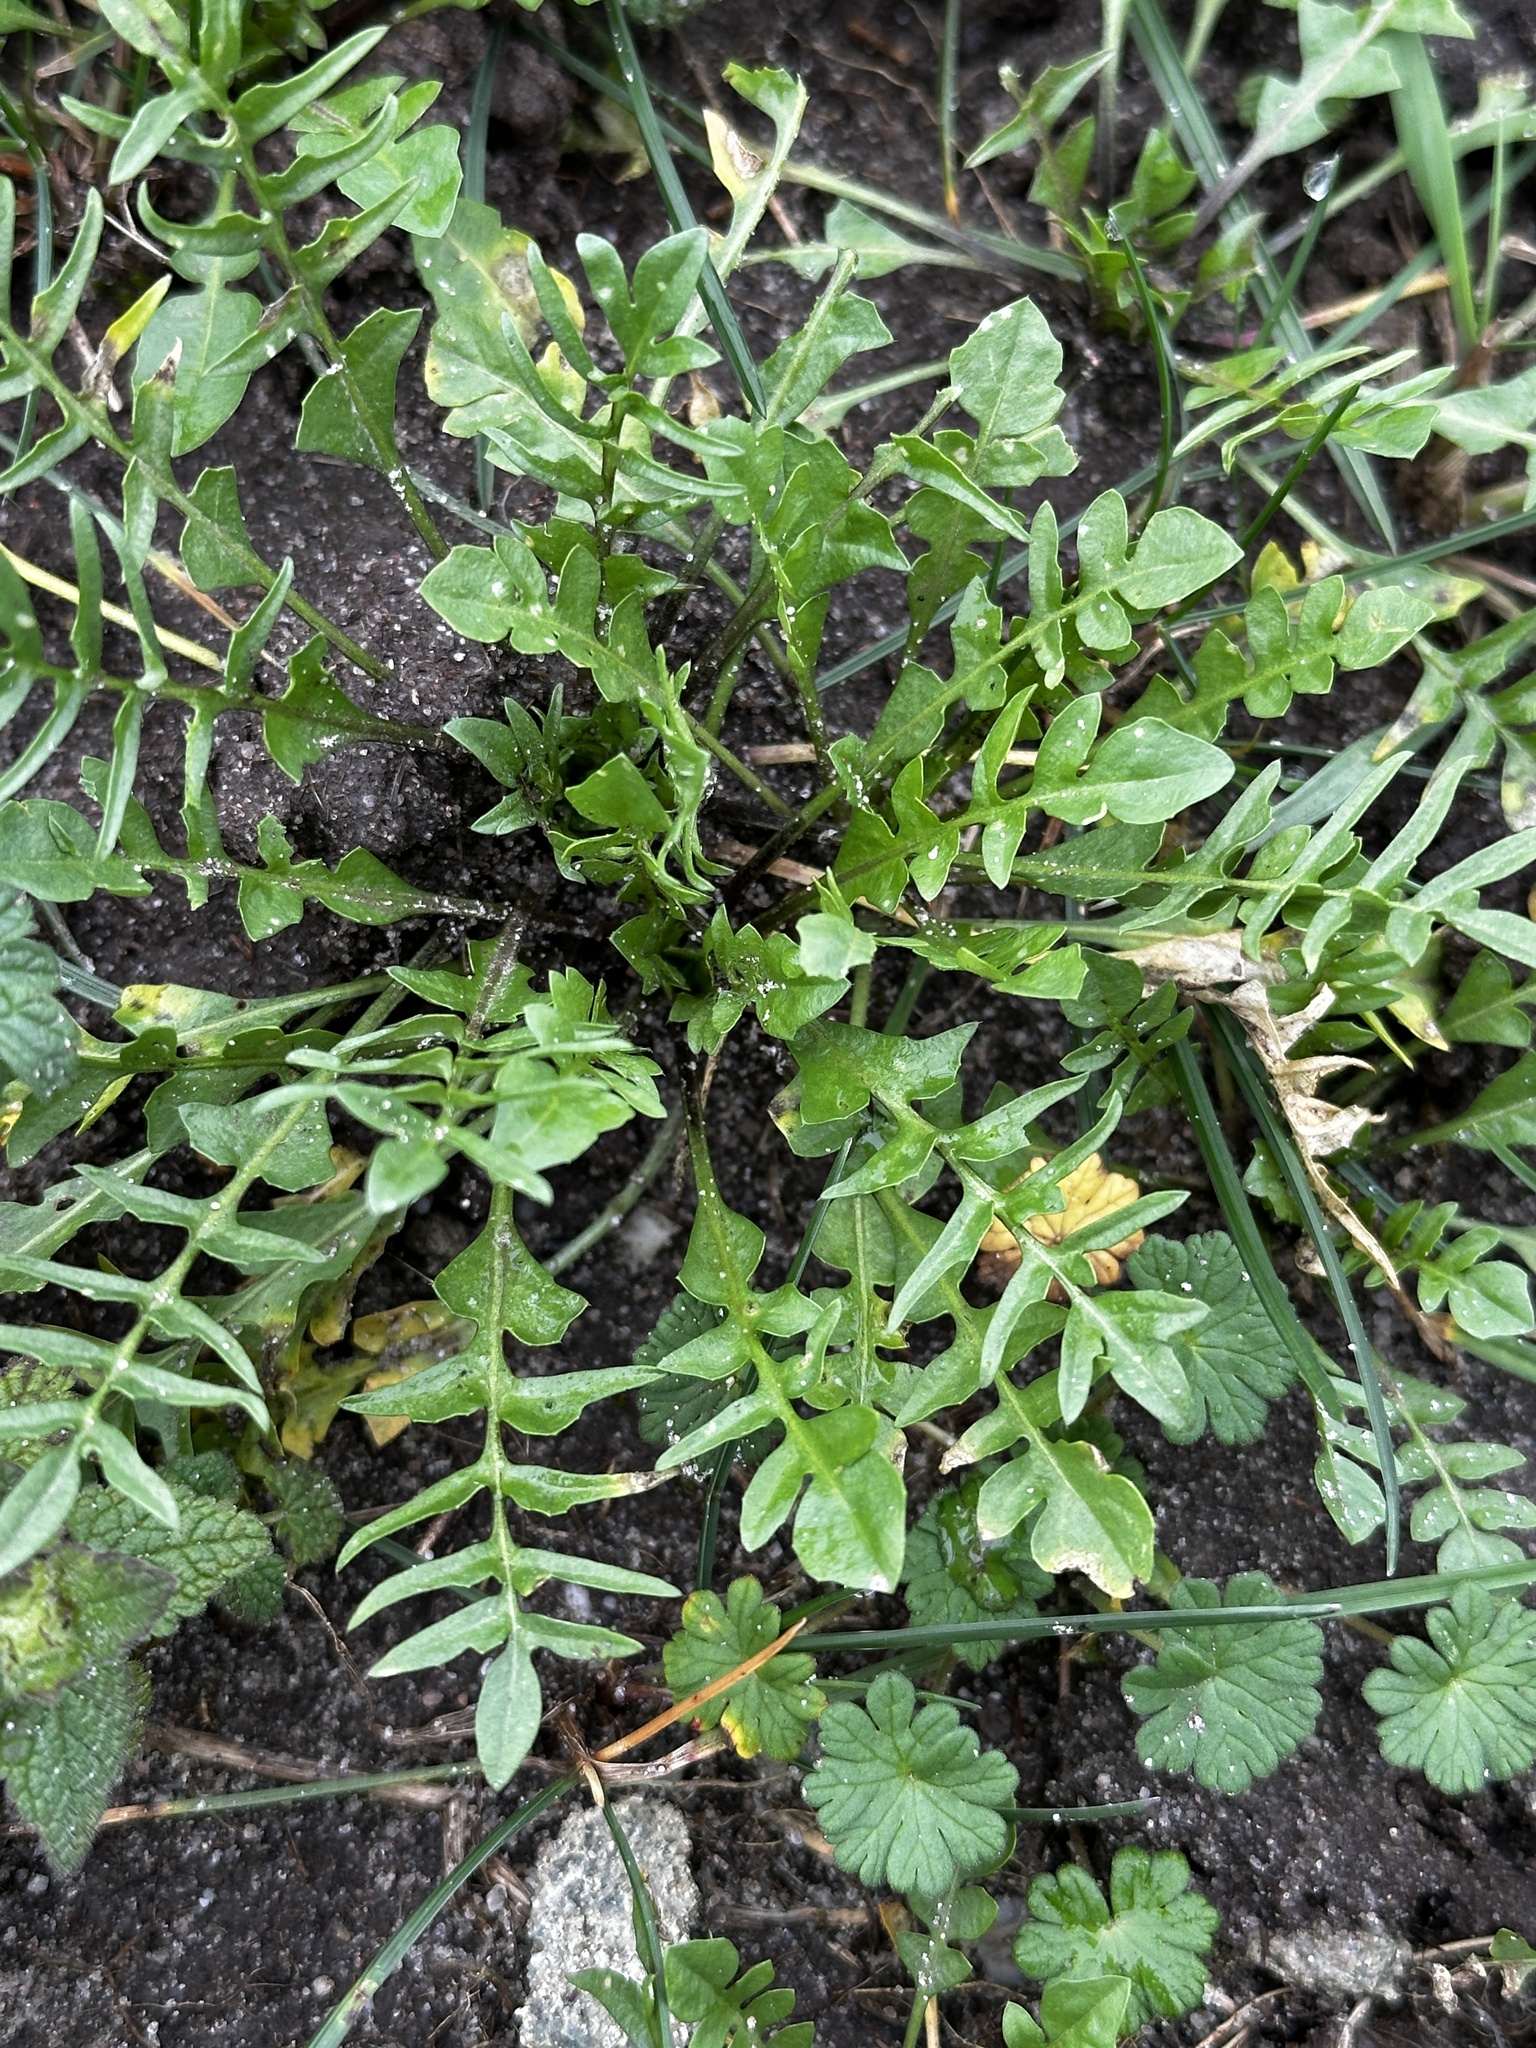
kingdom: Plantae
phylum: Tracheophyta
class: Magnoliopsida
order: Brassicales
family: Brassicaceae
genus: Capsella
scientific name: Capsella bursa-pastoris
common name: Shepherd's purse
